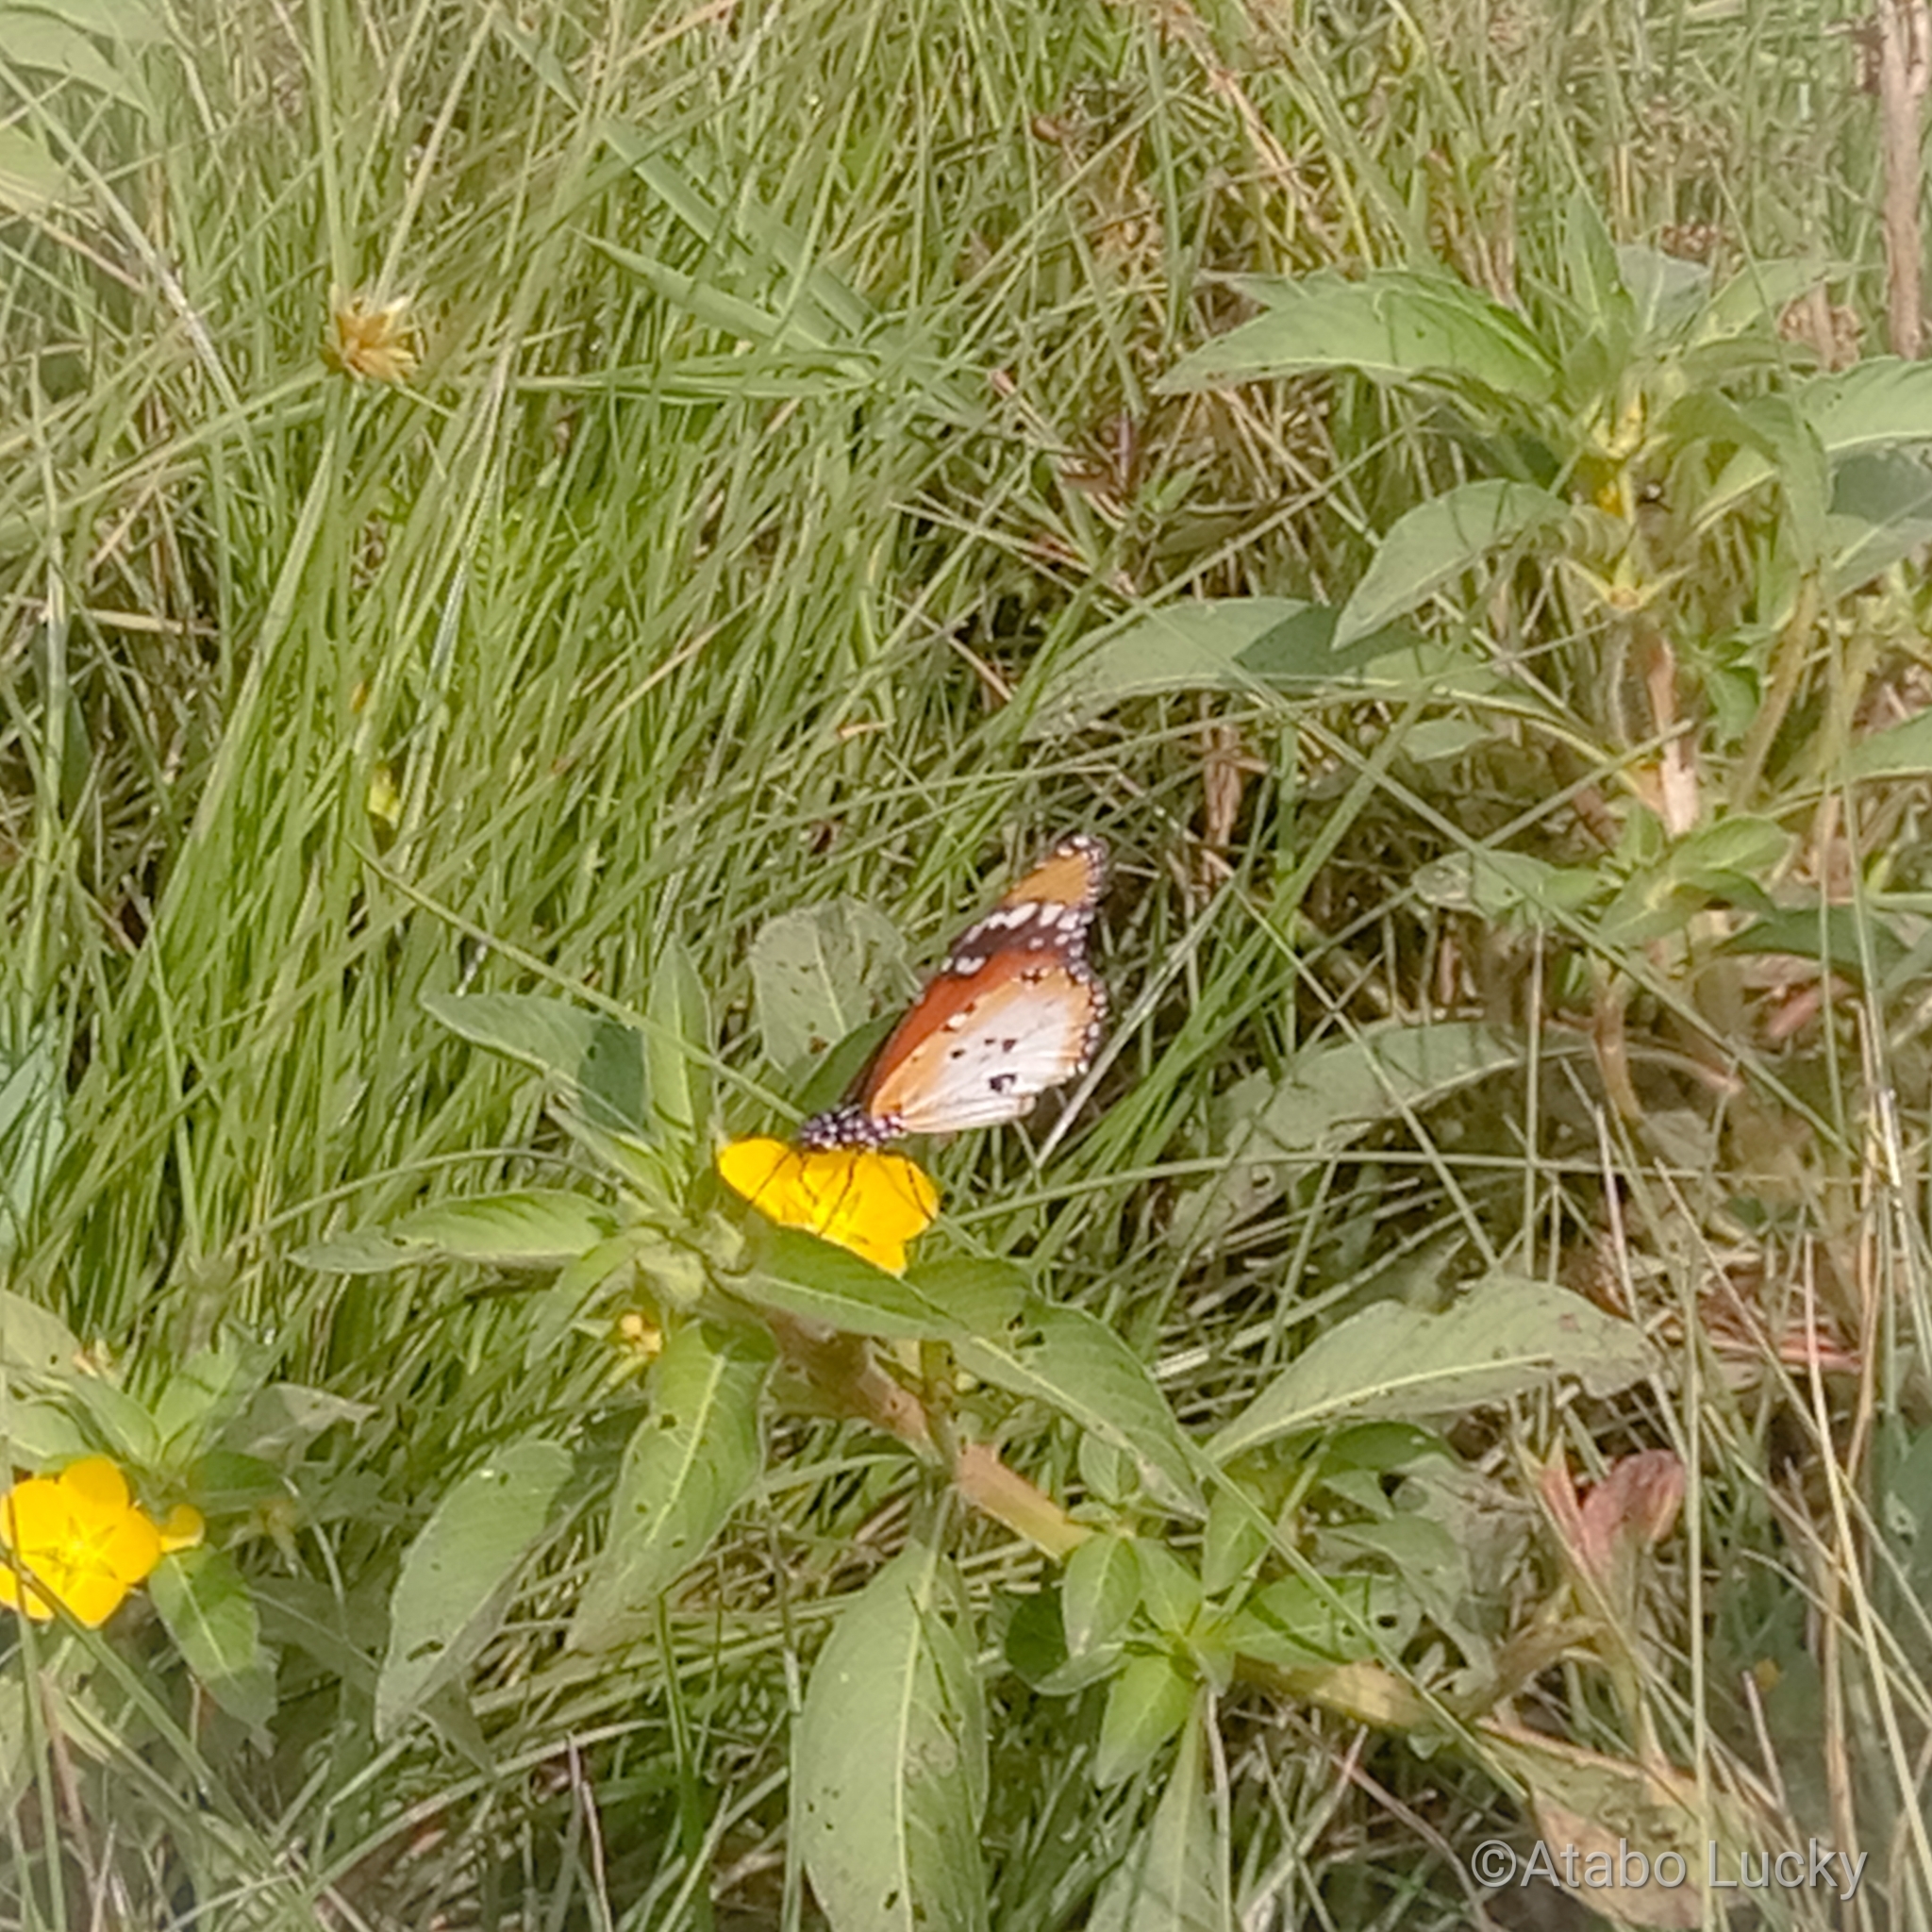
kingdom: Animalia
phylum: Arthropoda
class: Insecta
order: Lepidoptera
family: Nymphalidae
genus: Danaus
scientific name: Danaus chrysippus
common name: Plain tiger
